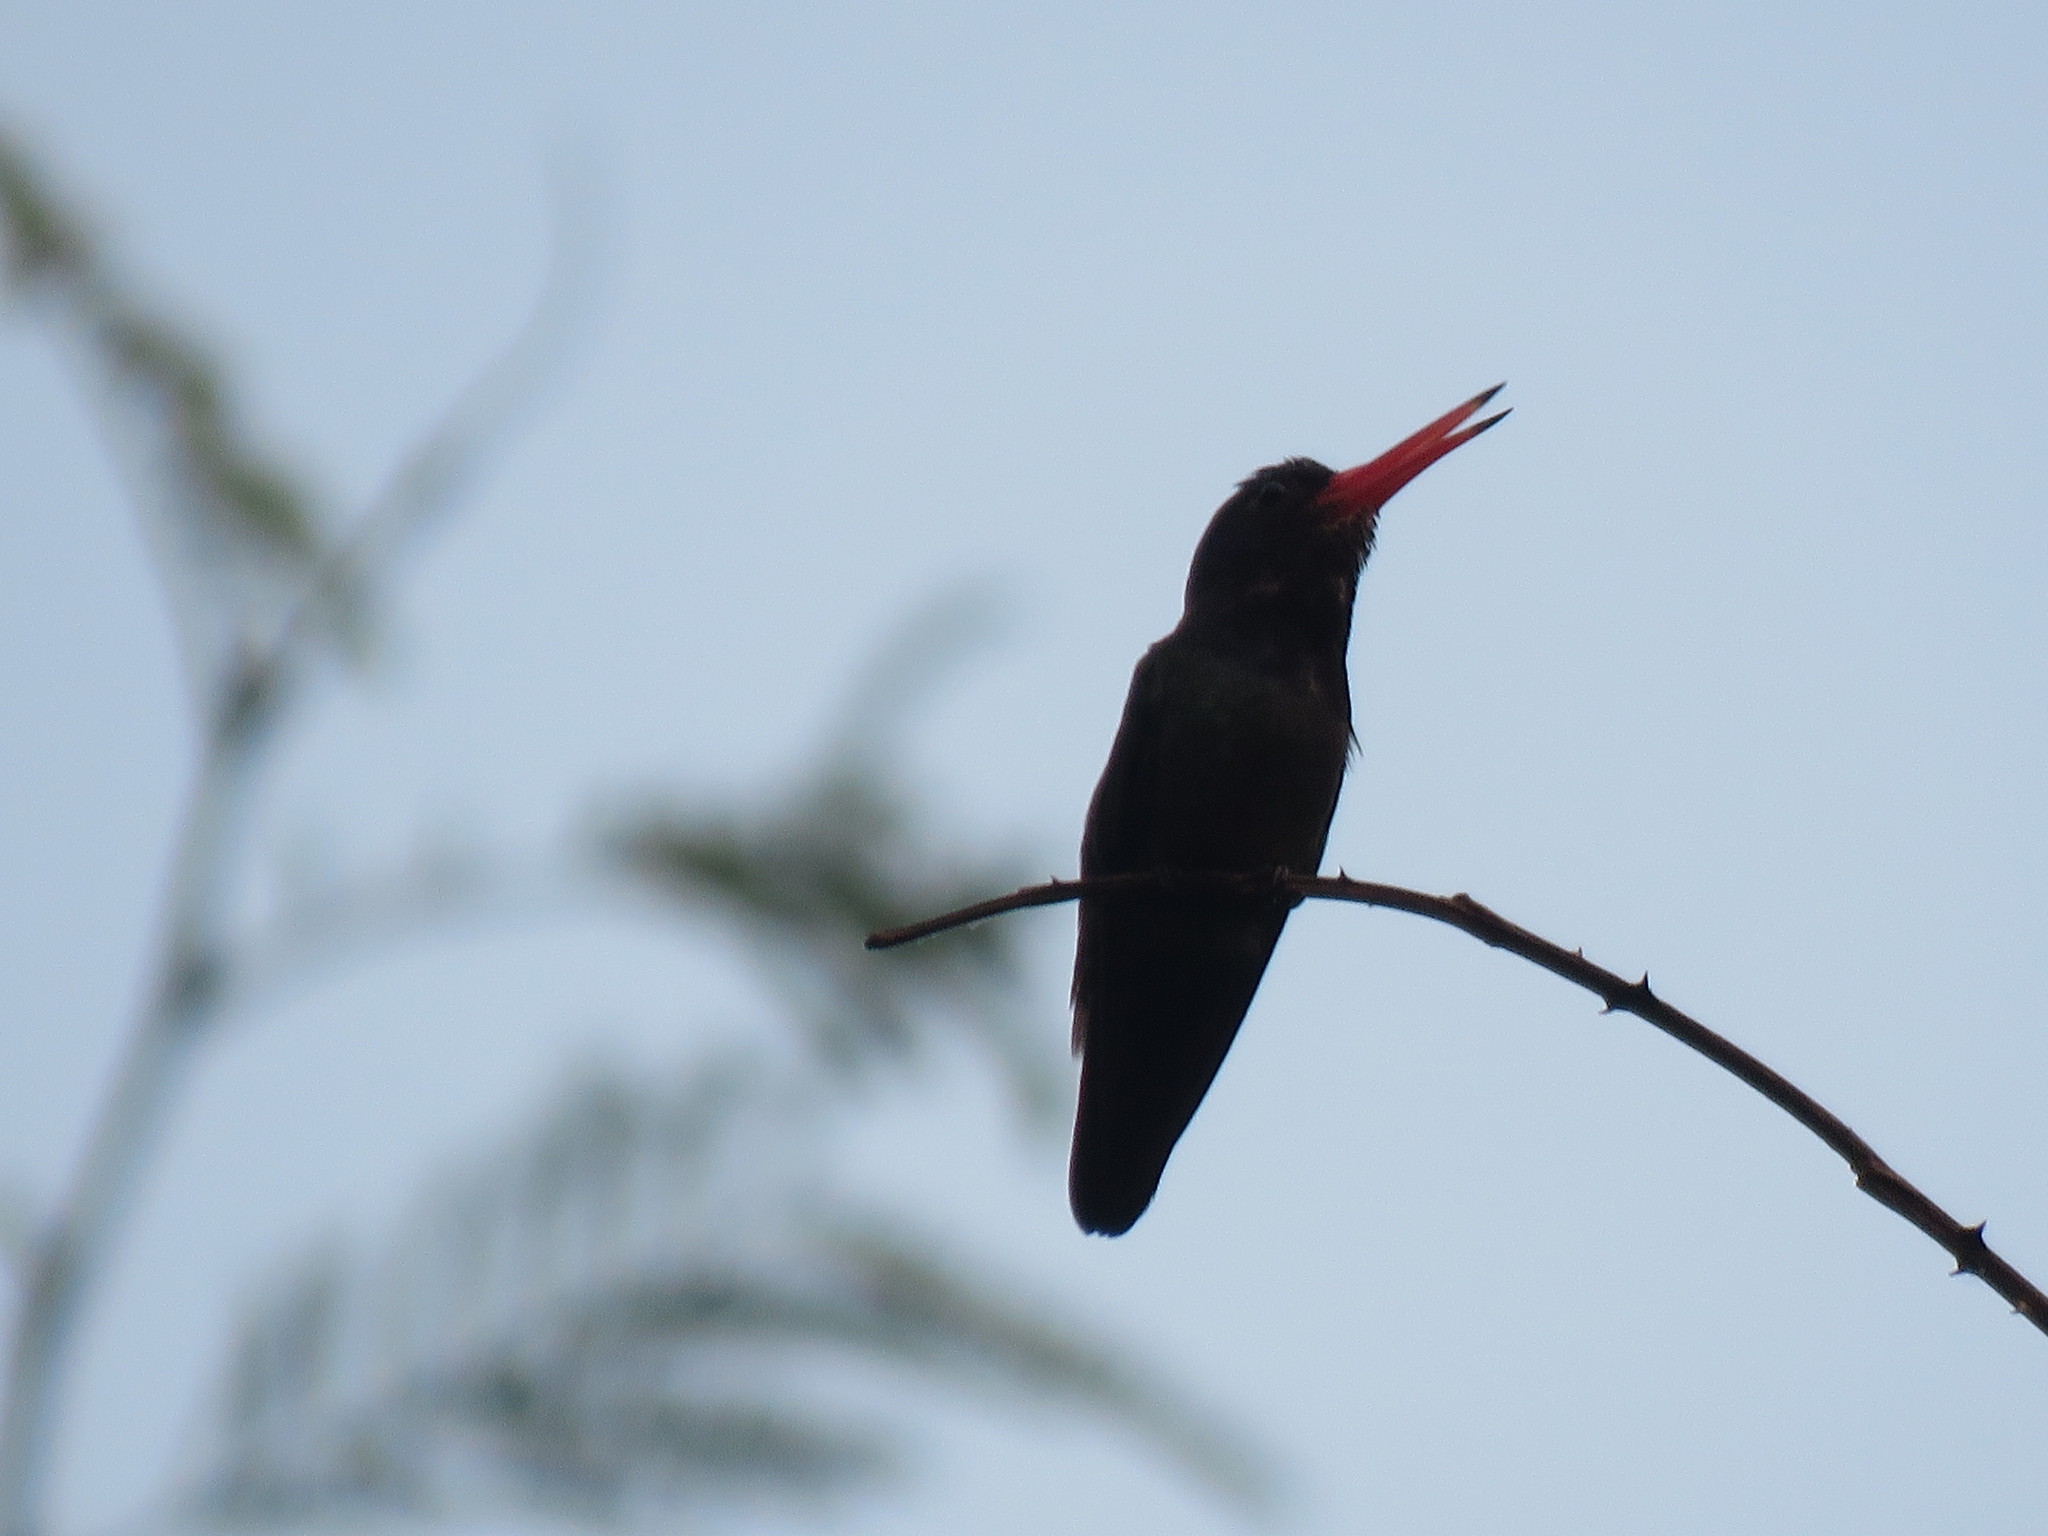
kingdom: Animalia
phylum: Chordata
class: Aves
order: Apodiformes
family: Trochilidae
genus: Chlorestes
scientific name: Chlorestes cyanus
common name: White-chinned sapphire
